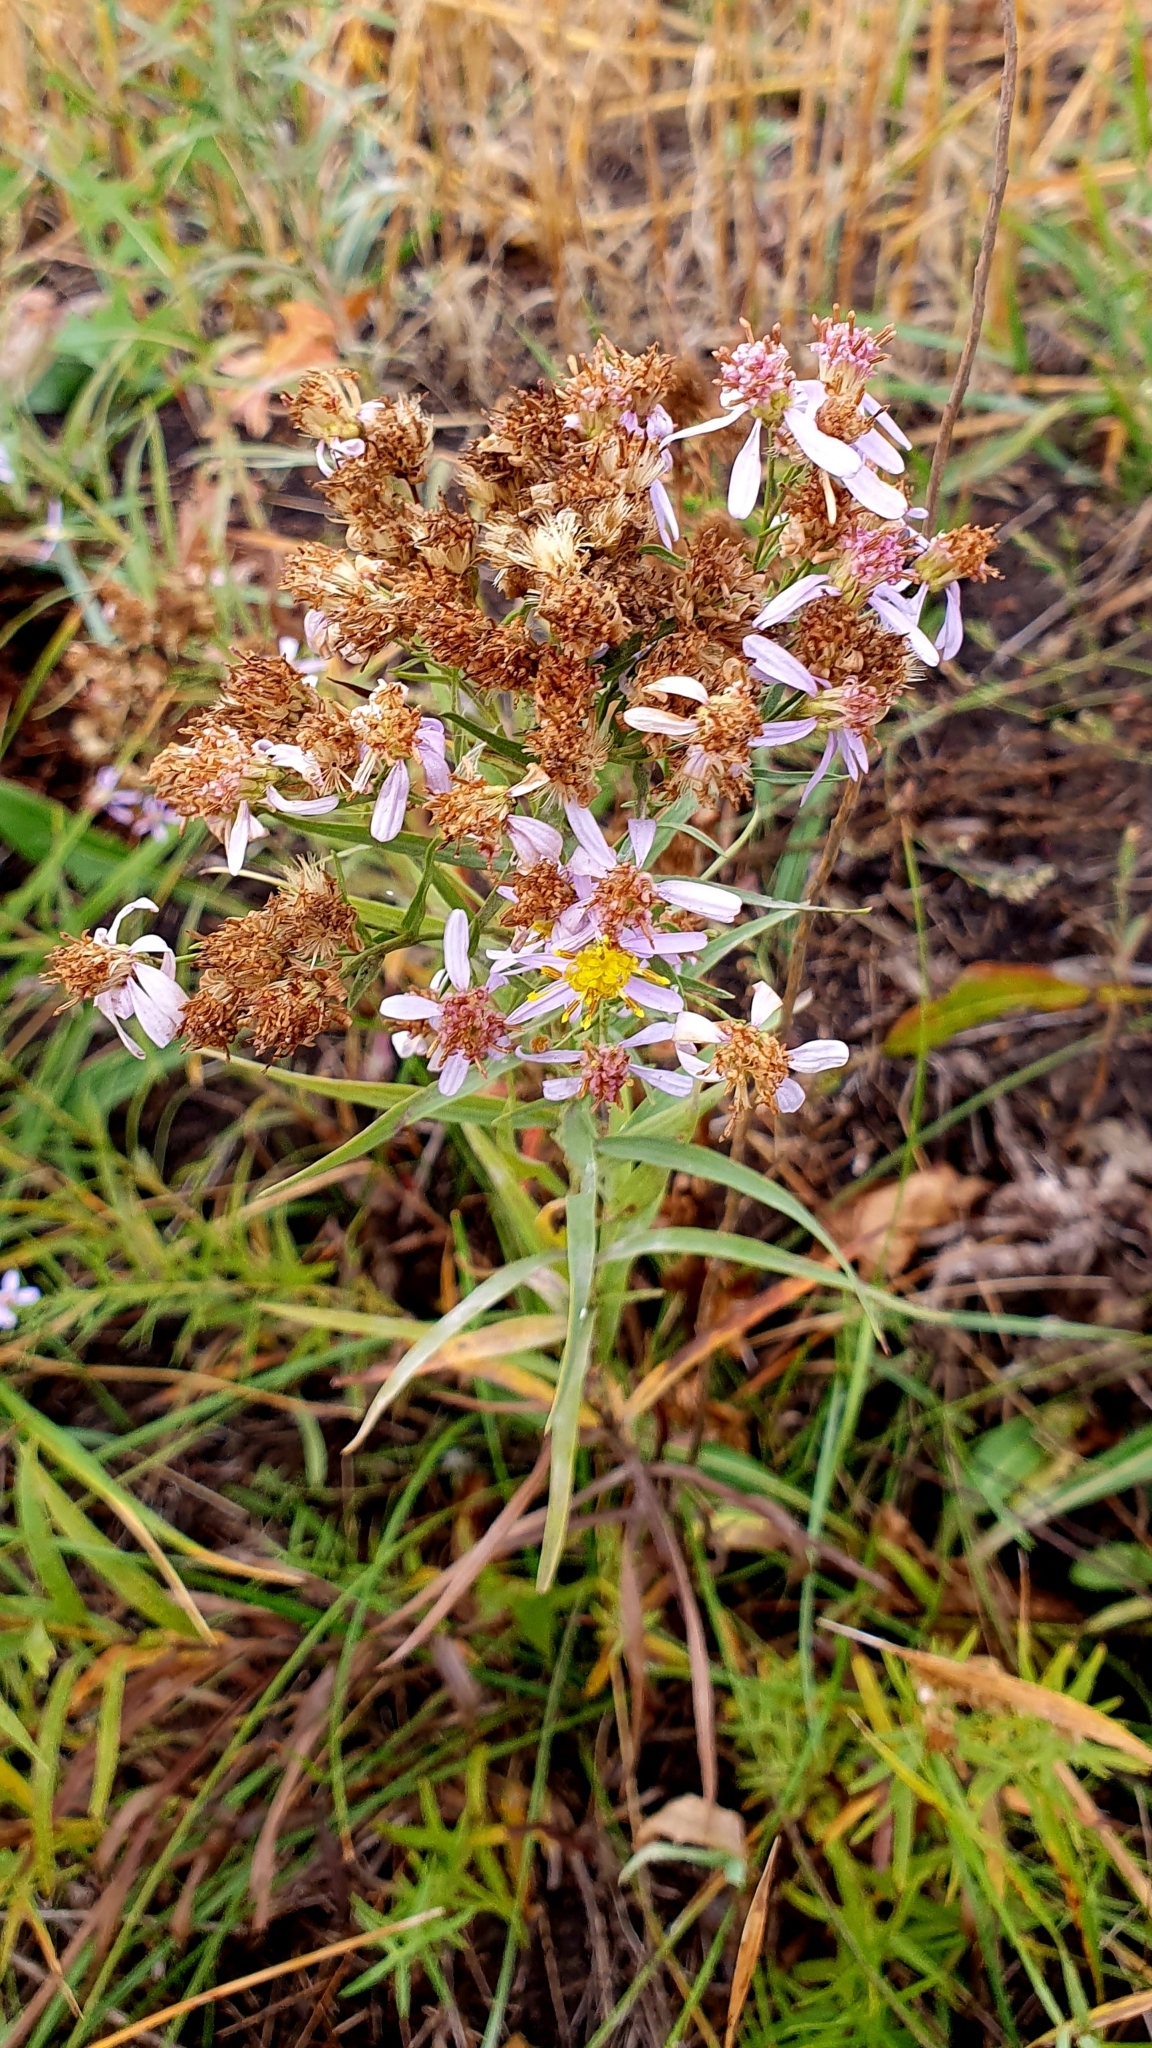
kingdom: Plantae
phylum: Tracheophyta
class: Magnoliopsida
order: Asterales
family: Asteraceae
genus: Galatella
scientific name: Galatella sedifolia
